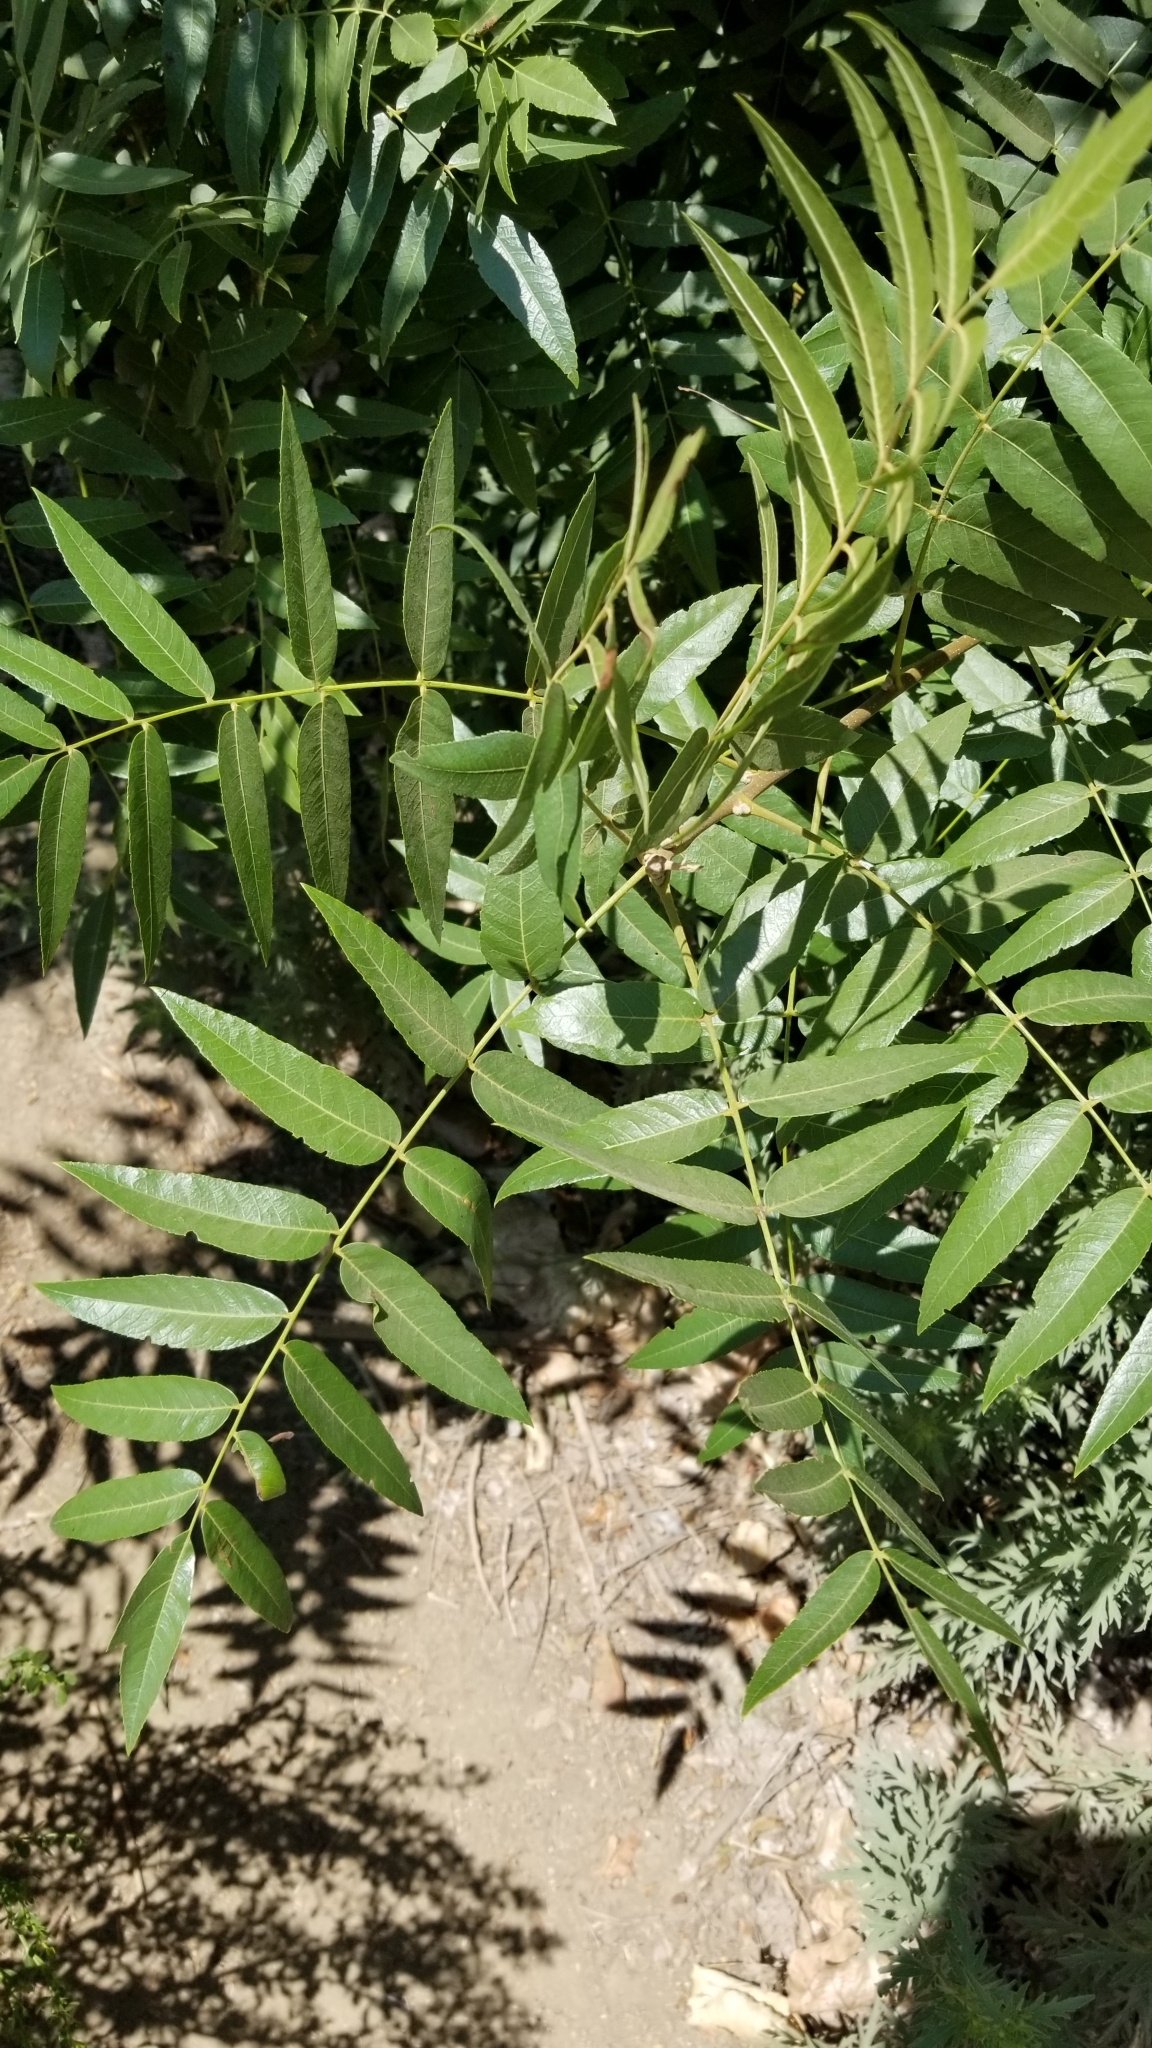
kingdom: Plantae
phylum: Tracheophyta
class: Magnoliopsida
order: Fagales
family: Juglandaceae
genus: Juglans
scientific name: Juglans californica
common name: Southern california black walnut
